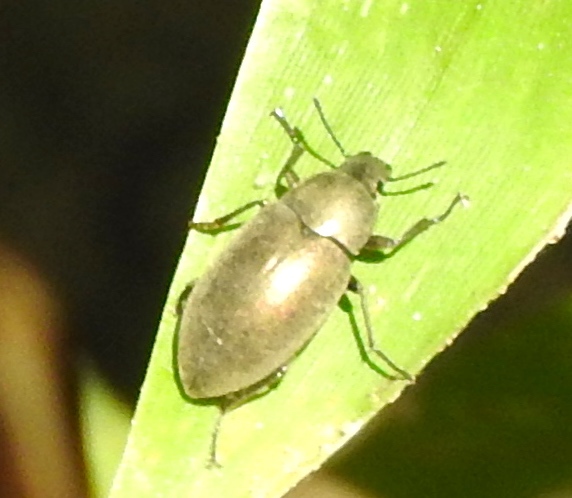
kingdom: Animalia
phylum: Arthropoda
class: Insecta
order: Coleoptera
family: Tenebrionidae
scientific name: Tenebrionidae
